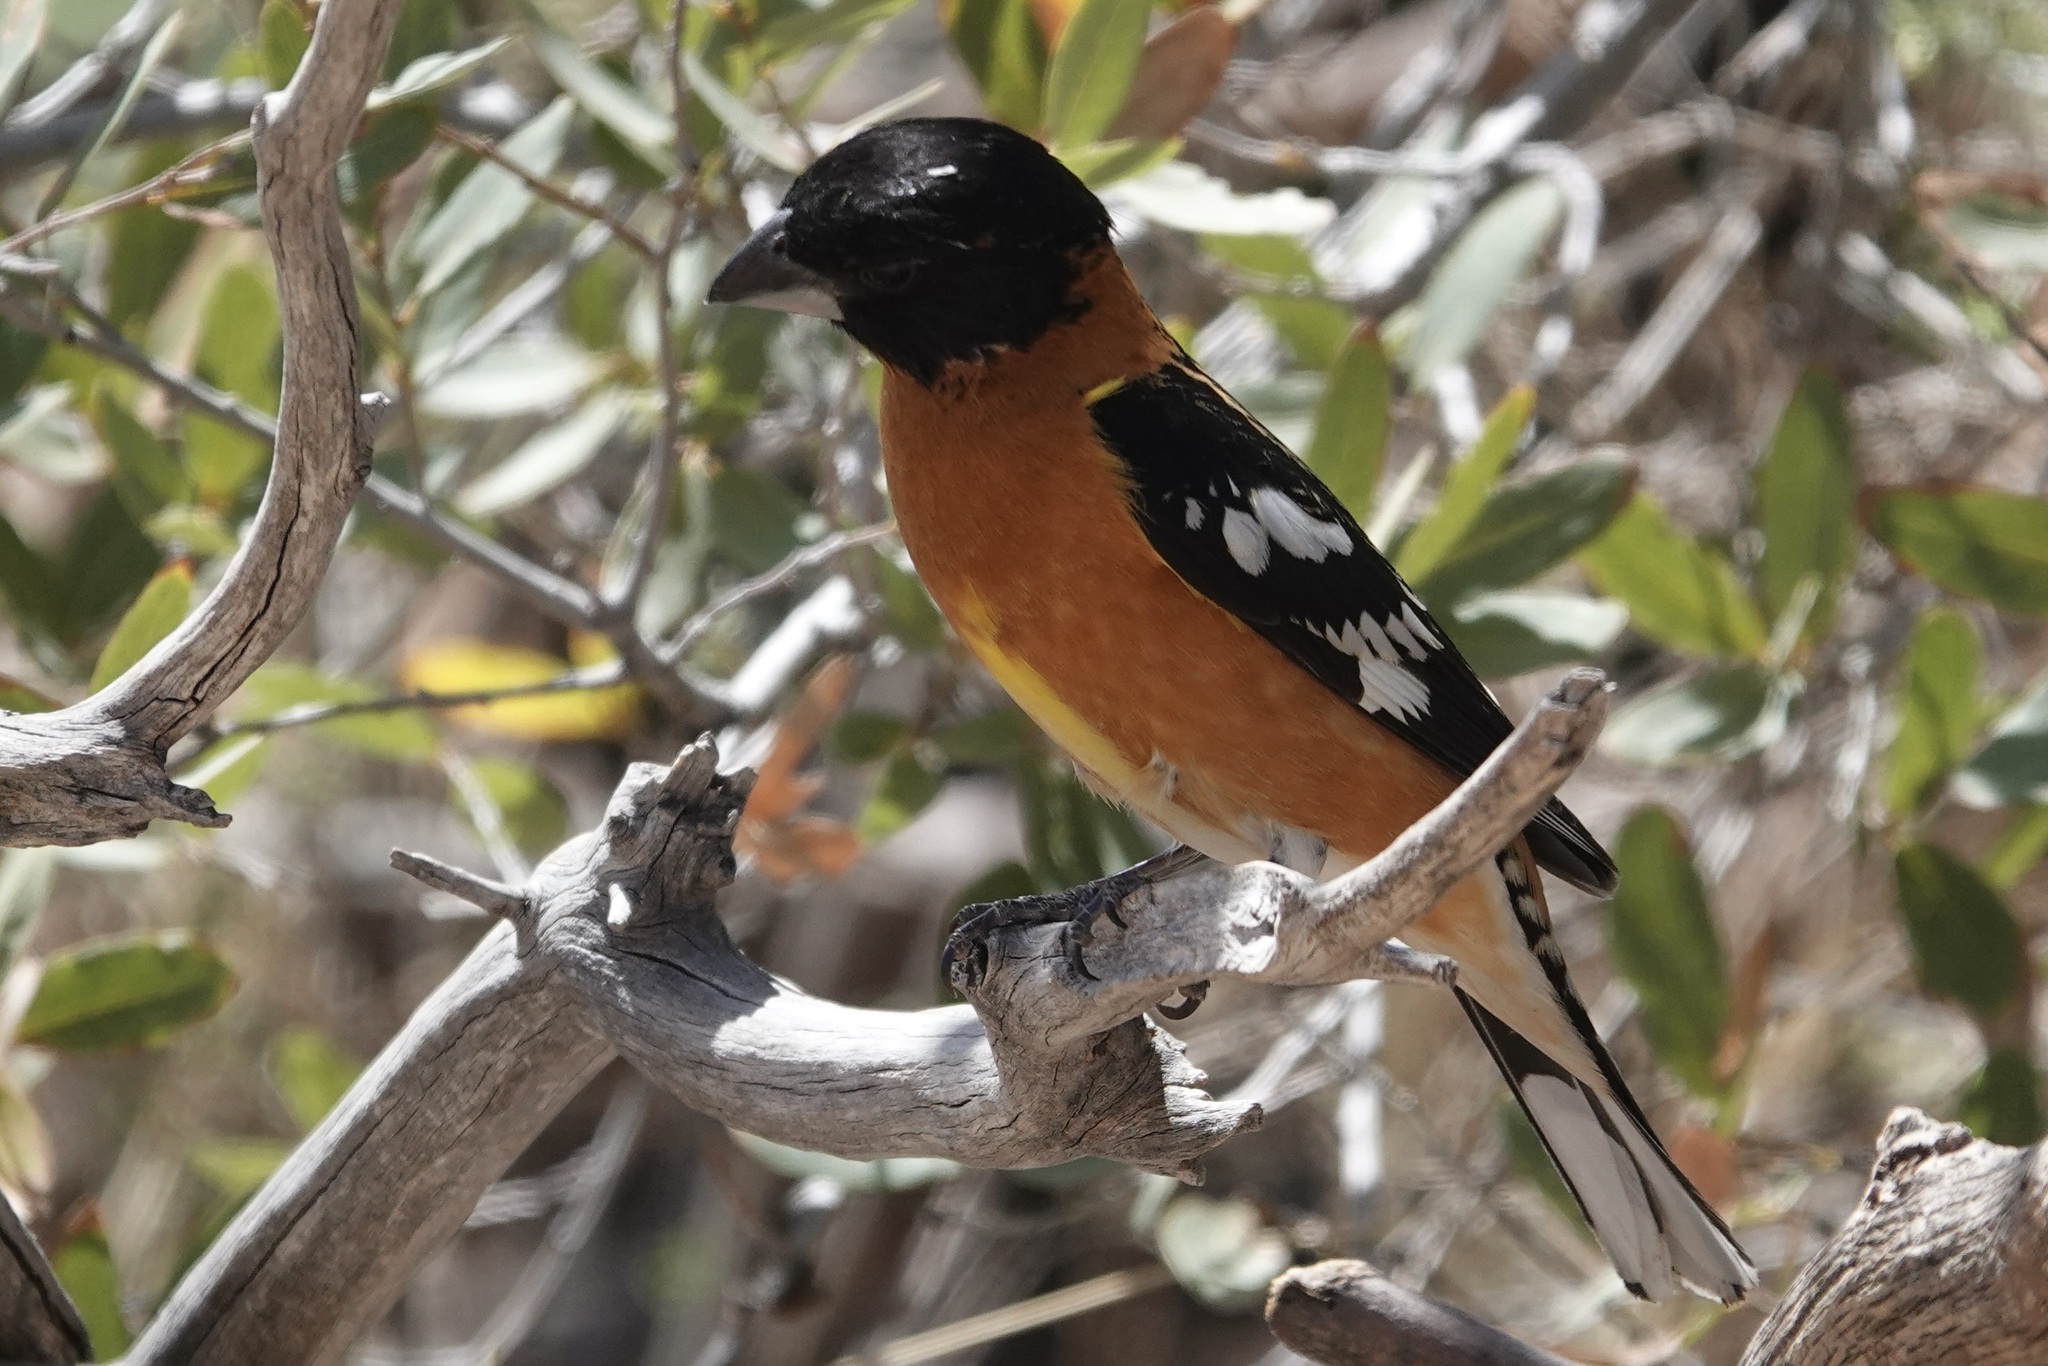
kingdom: Animalia
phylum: Chordata
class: Aves
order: Passeriformes
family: Cardinalidae
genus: Pheucticus
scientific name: Pheucticus melanocephalus
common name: Black-headed grosbeak
